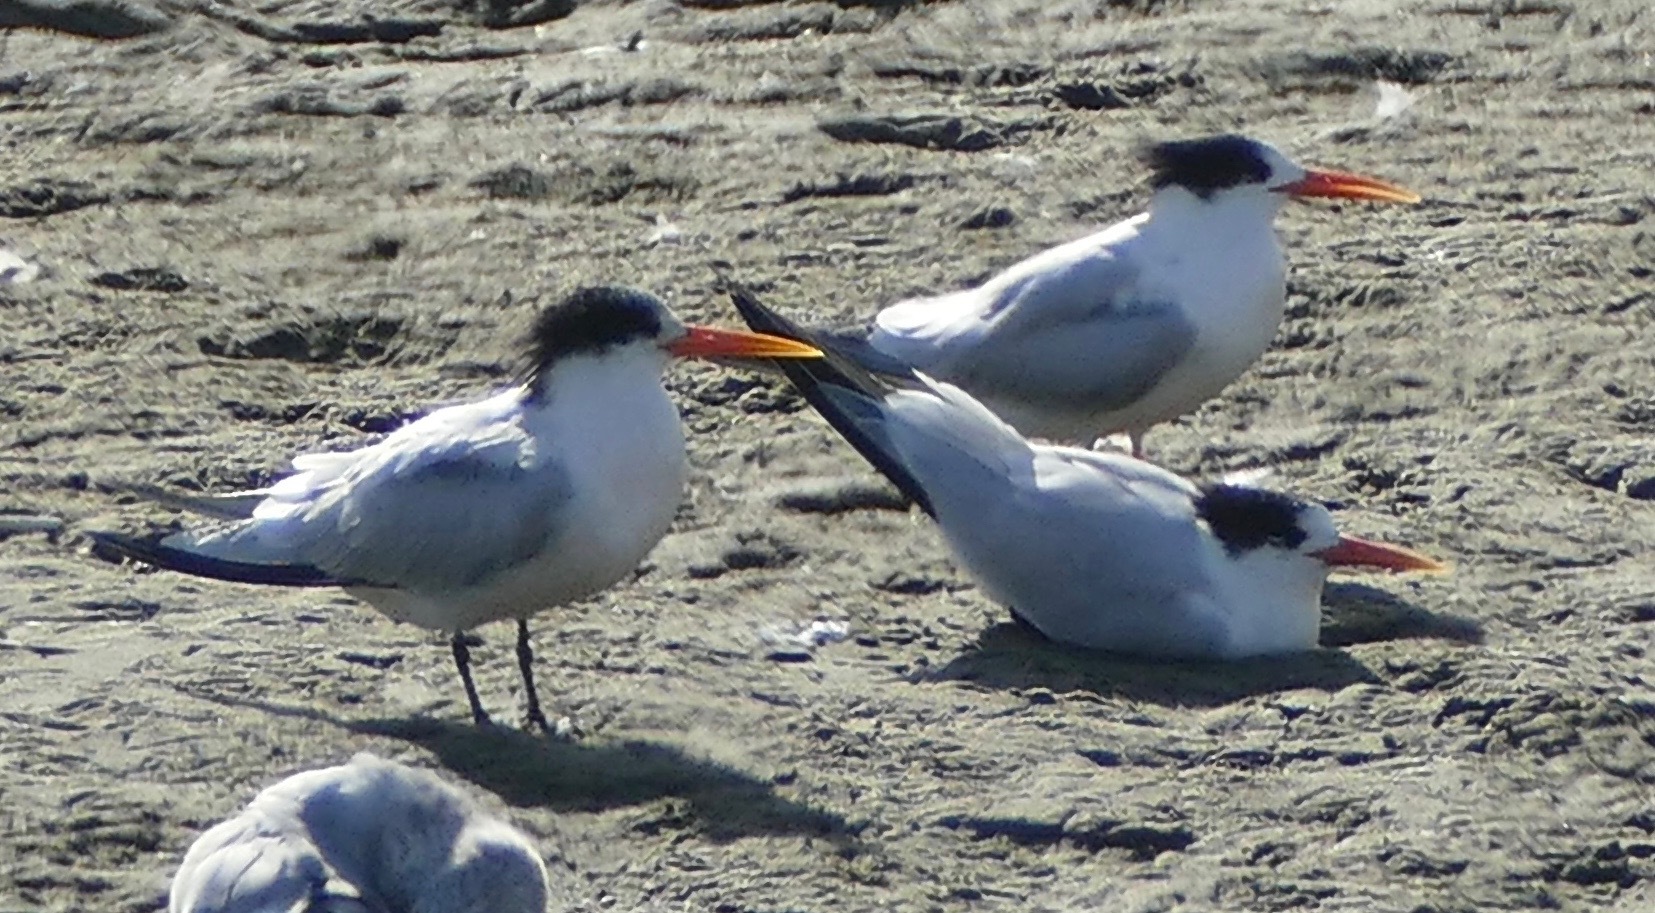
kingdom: Animalia
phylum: Chordata
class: Aves
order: Charadriiformes
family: Laridae
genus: Thalasseus
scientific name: Thalasseus elegans
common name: Elegant tern
